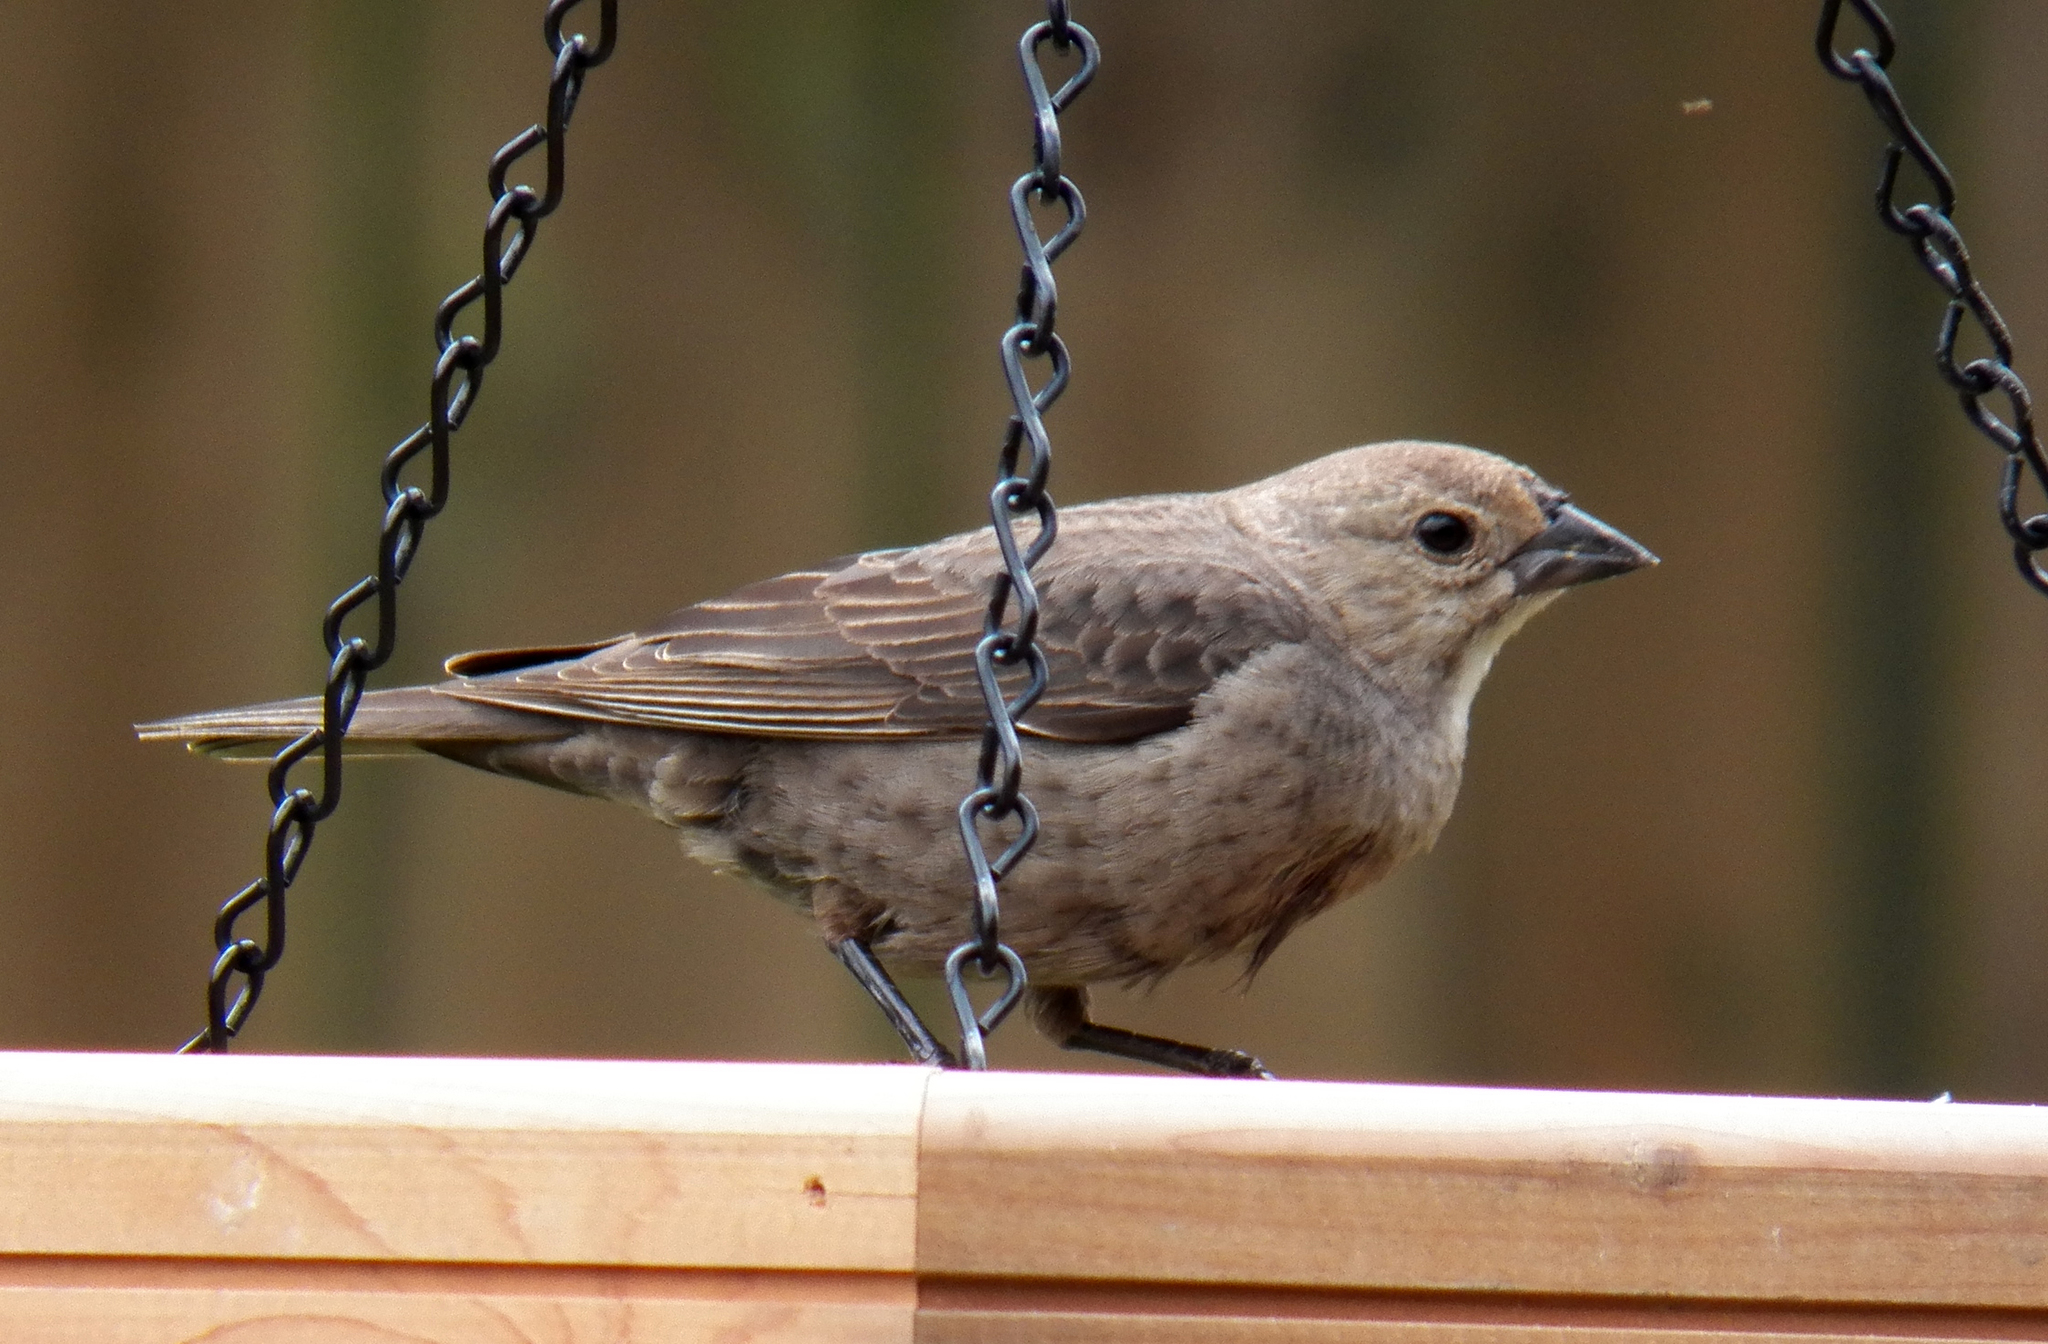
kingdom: Animalia
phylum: Chordata
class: Aves
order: Passeriformes
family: Icteridae
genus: Molothrus
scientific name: Molothrus ater
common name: Brown-headed cowbird
